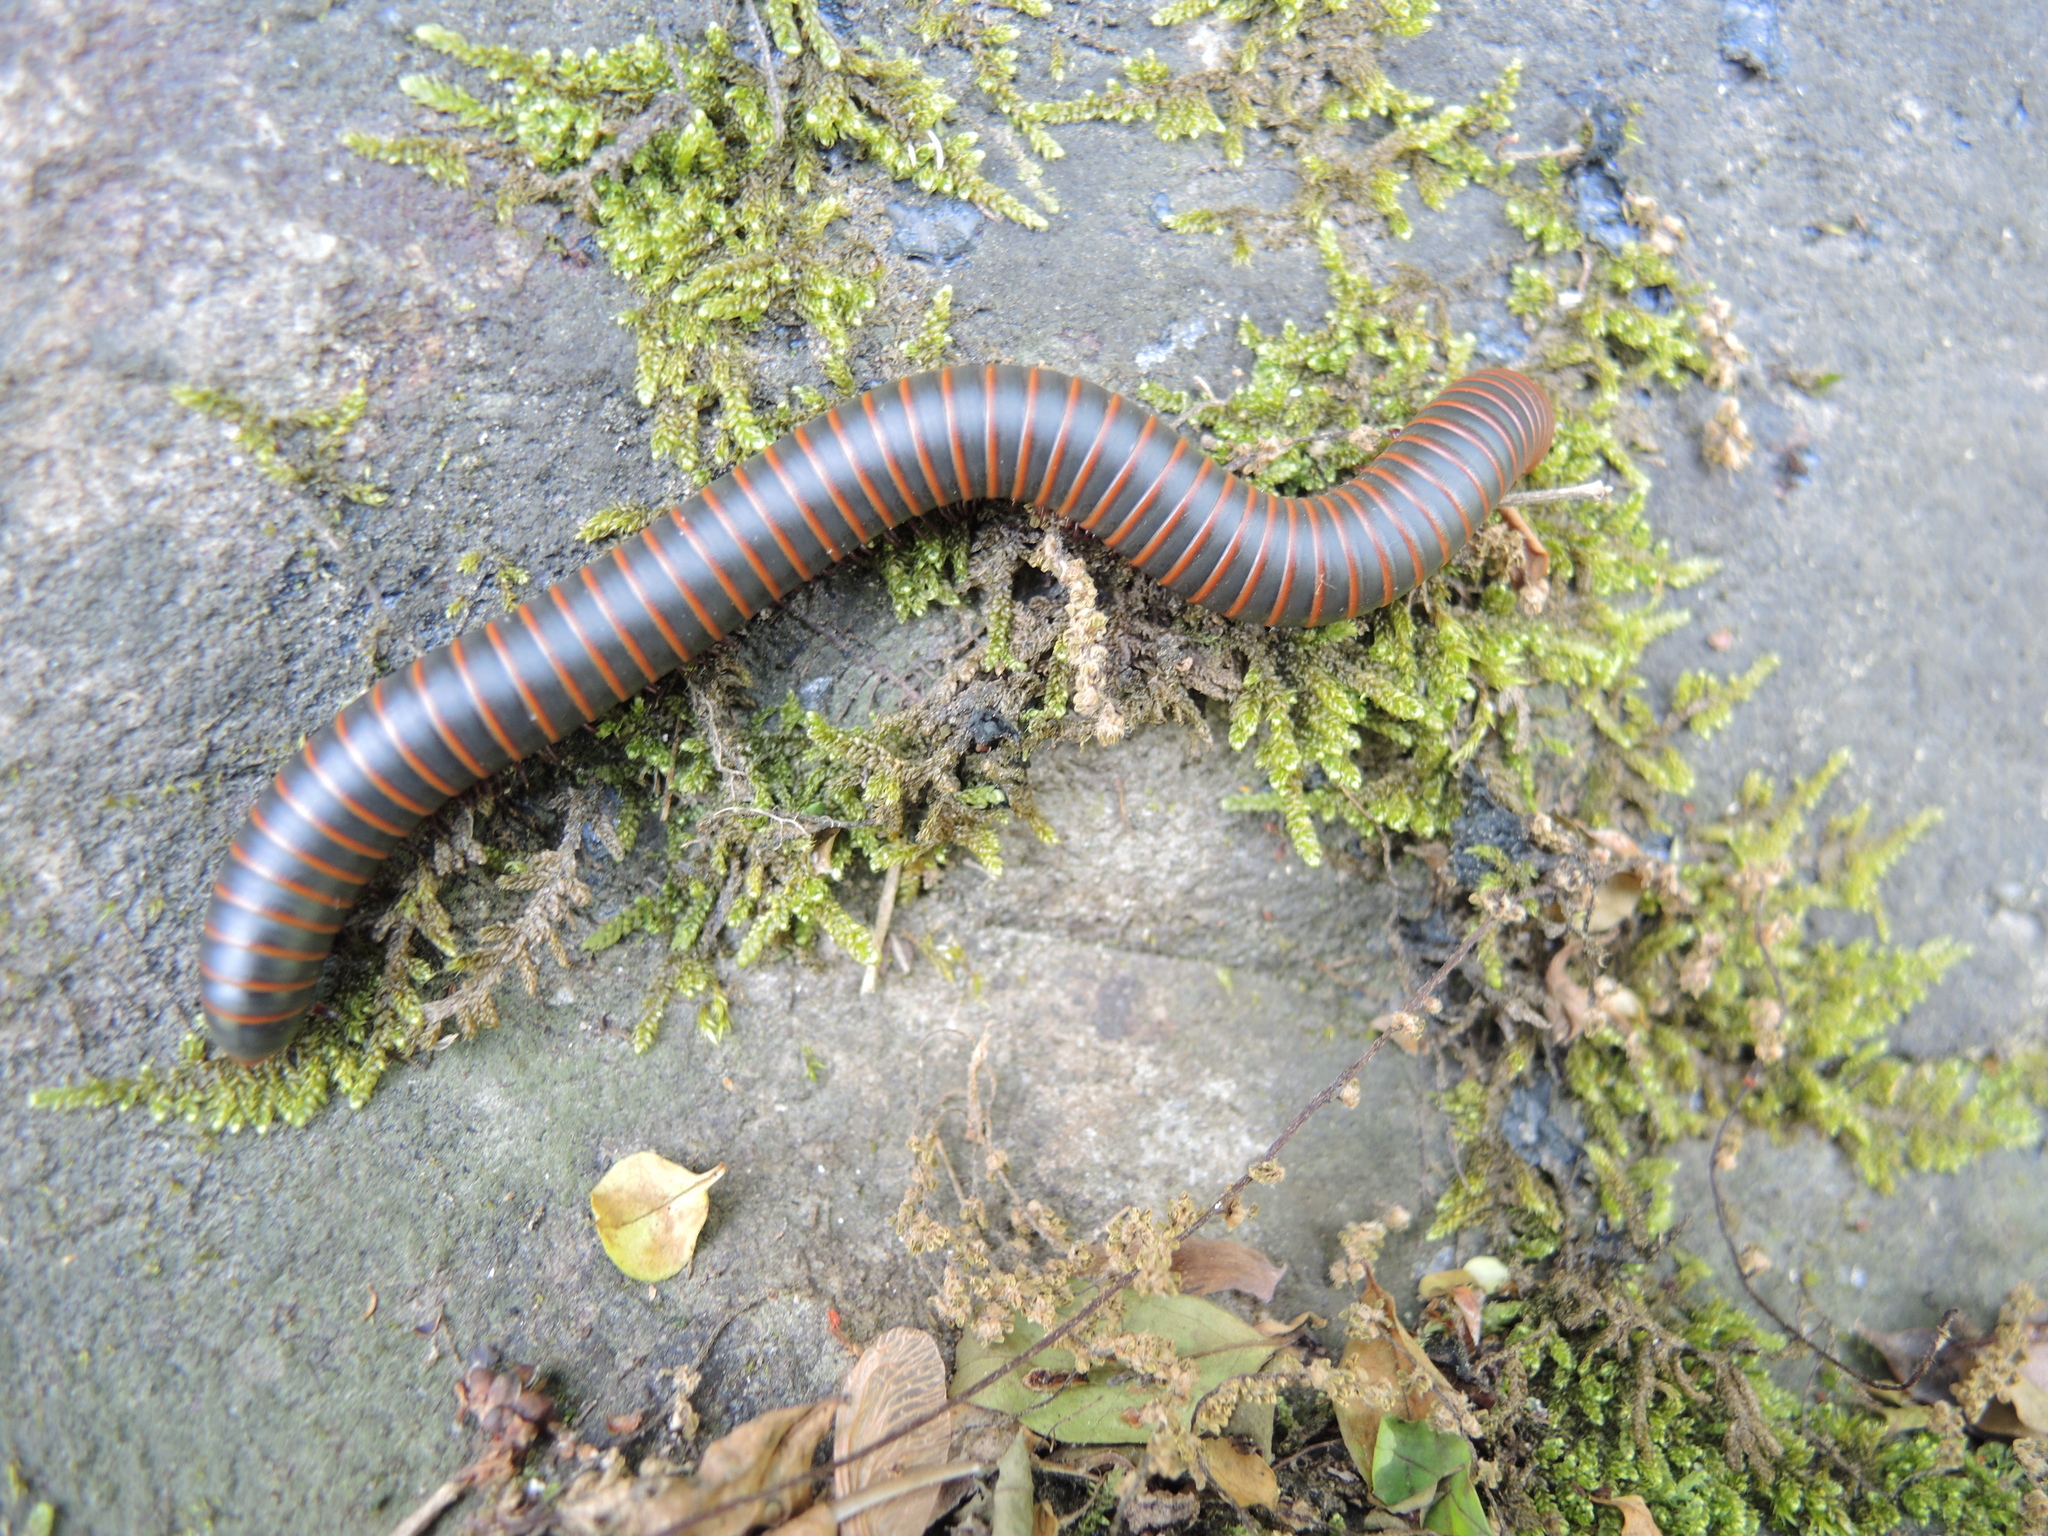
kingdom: Animalia
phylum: Arthropoda
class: Diplopoda
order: Spirobolida
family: Spirobolidae
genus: Narceus
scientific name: Narceus
